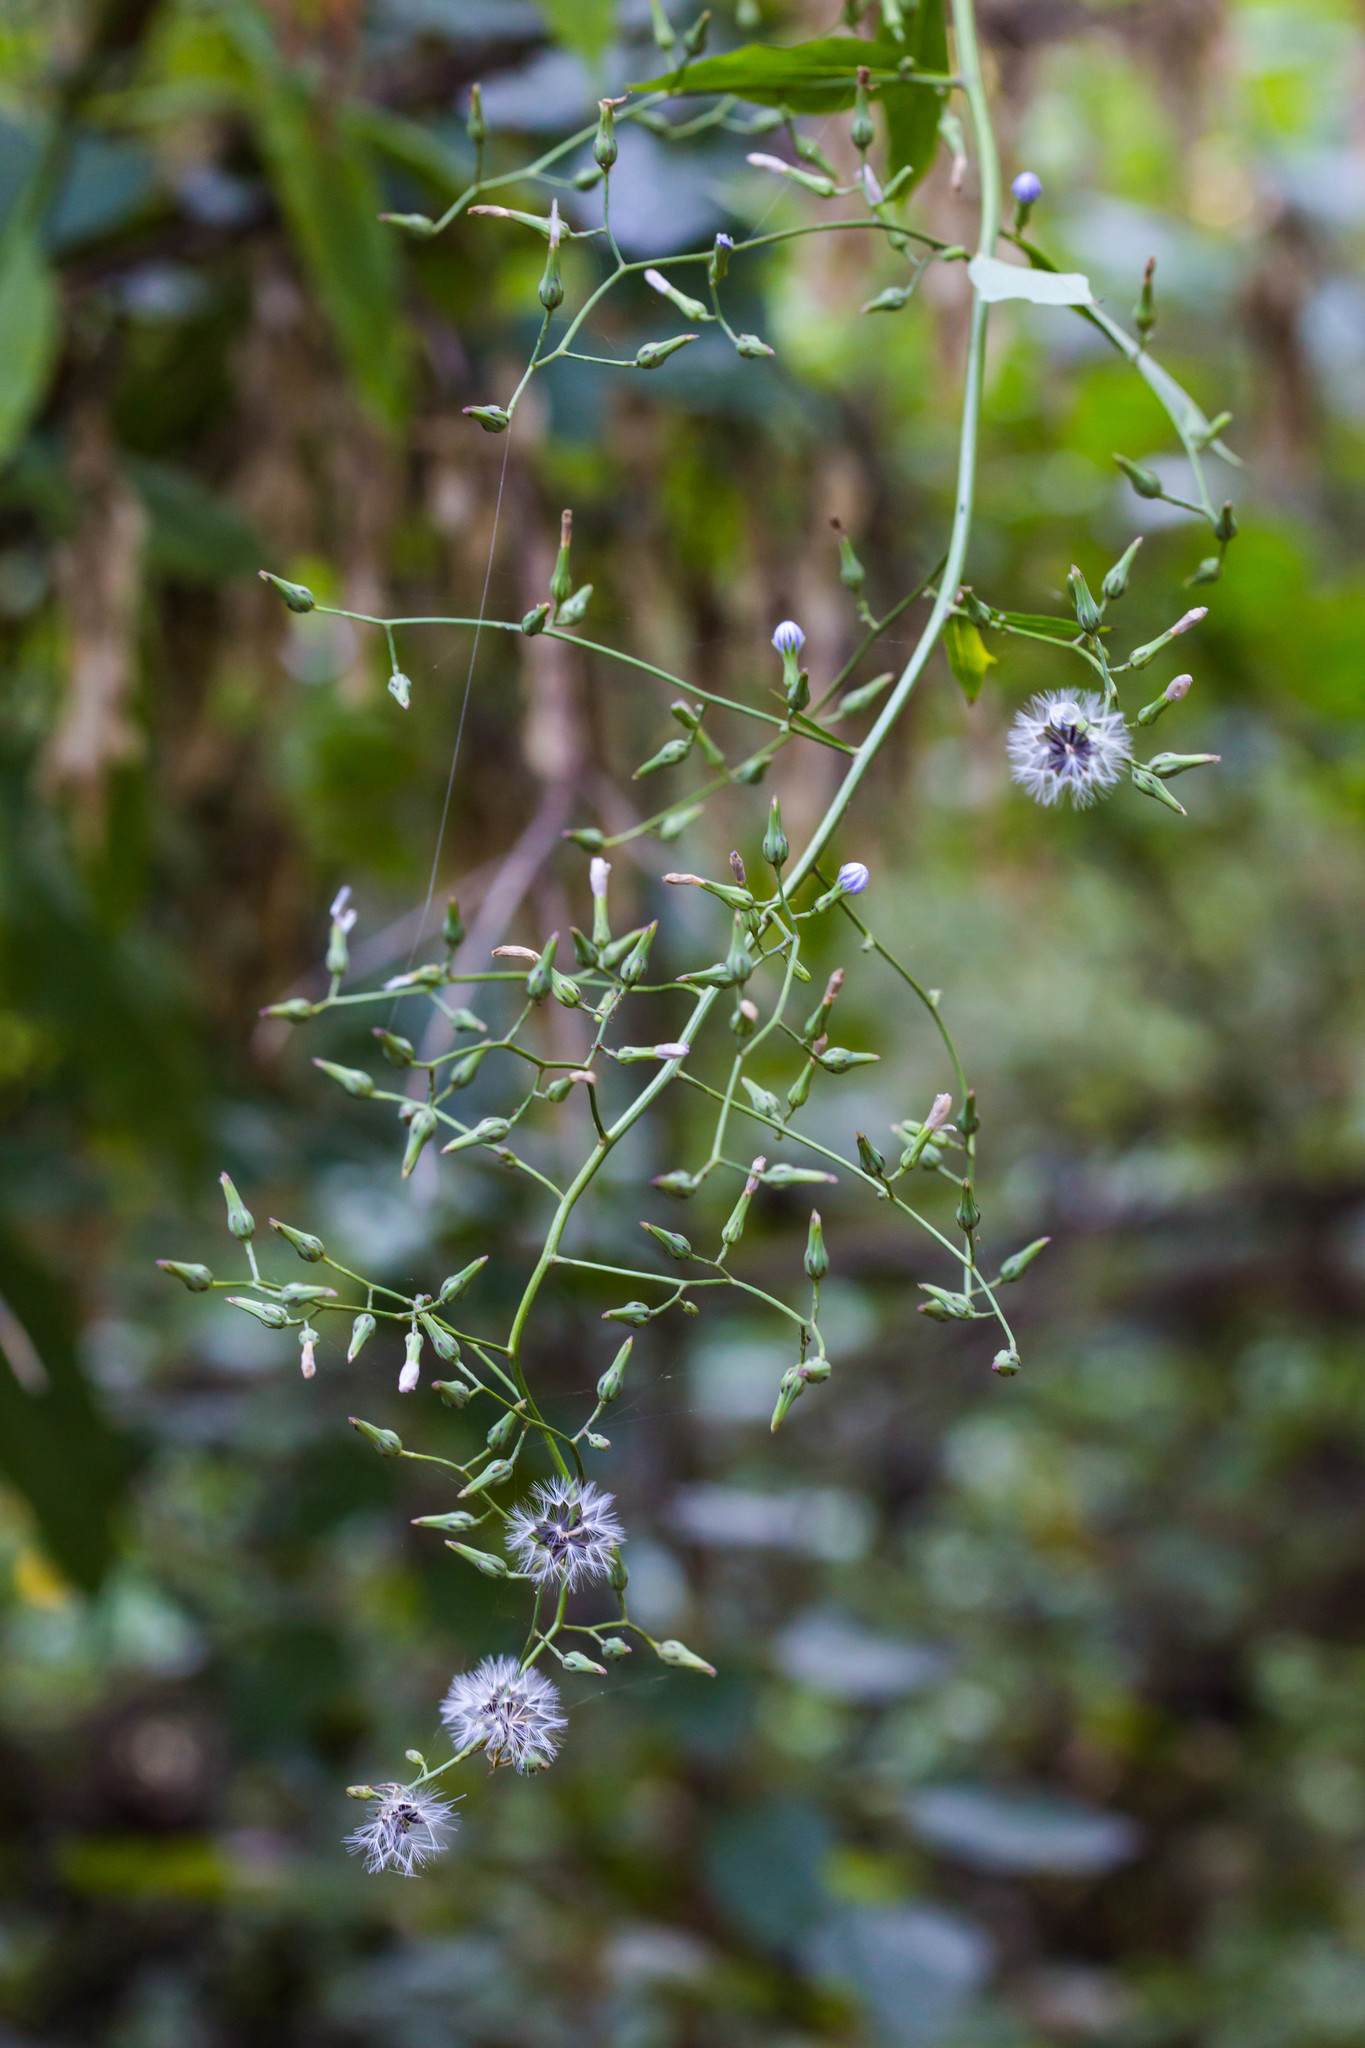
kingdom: Plantae
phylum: Tracheophyta
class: Magnoliopsida
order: Asterales
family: Asteraceae
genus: Lactuca
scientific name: Lactuca floridana
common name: Woodland lettuce
